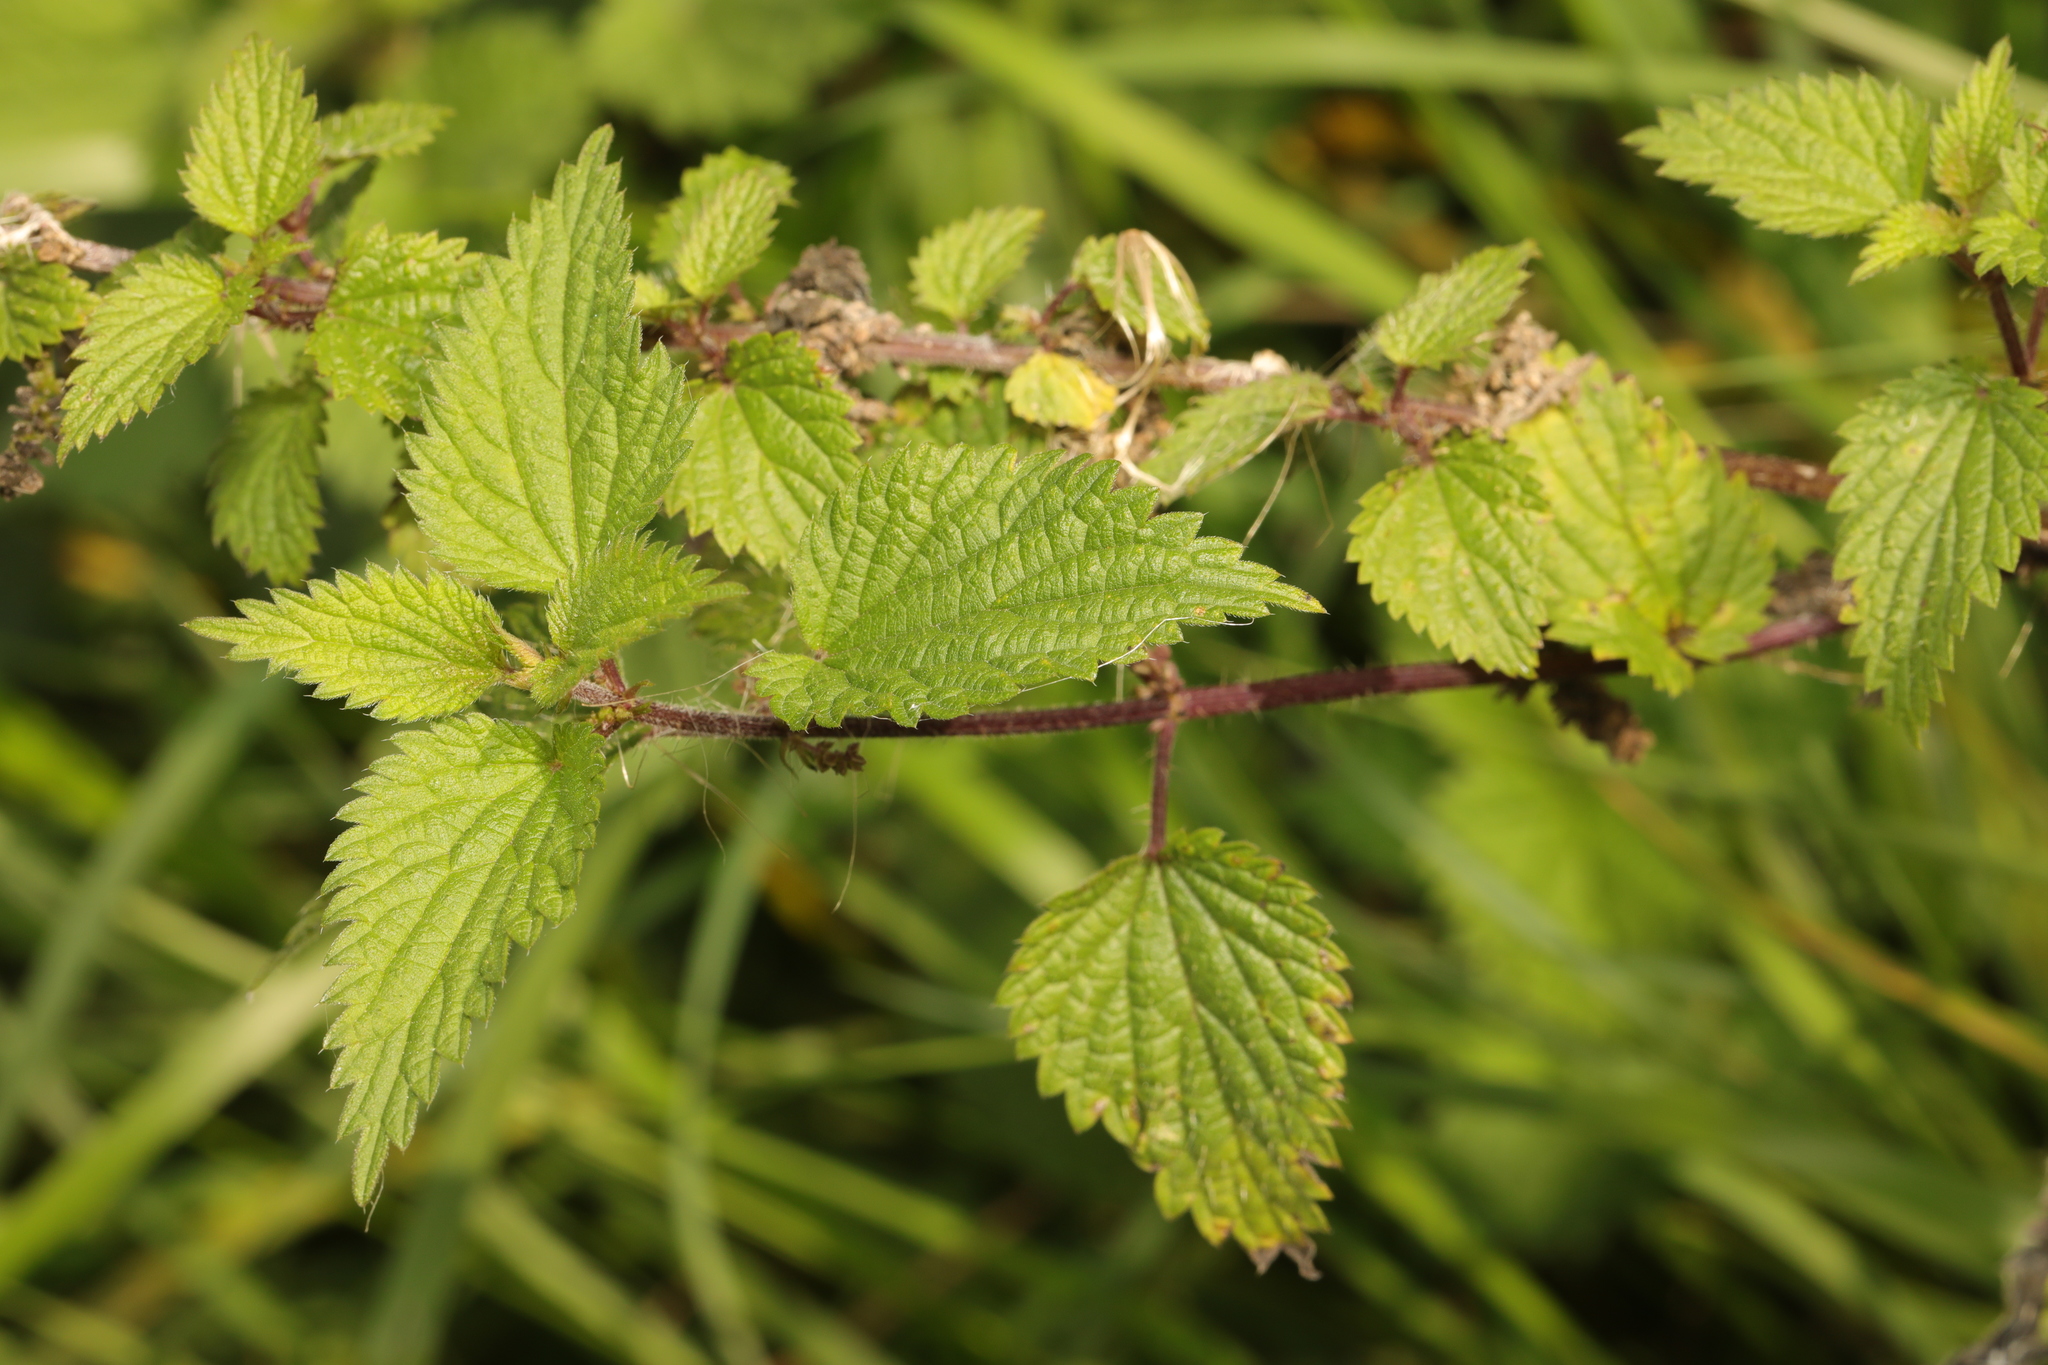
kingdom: Plantae
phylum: Tracheophyta
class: Magnoliopsida
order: Rosales
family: Urticaceae
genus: Urtica
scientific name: Urtica dioica
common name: Common nettle
